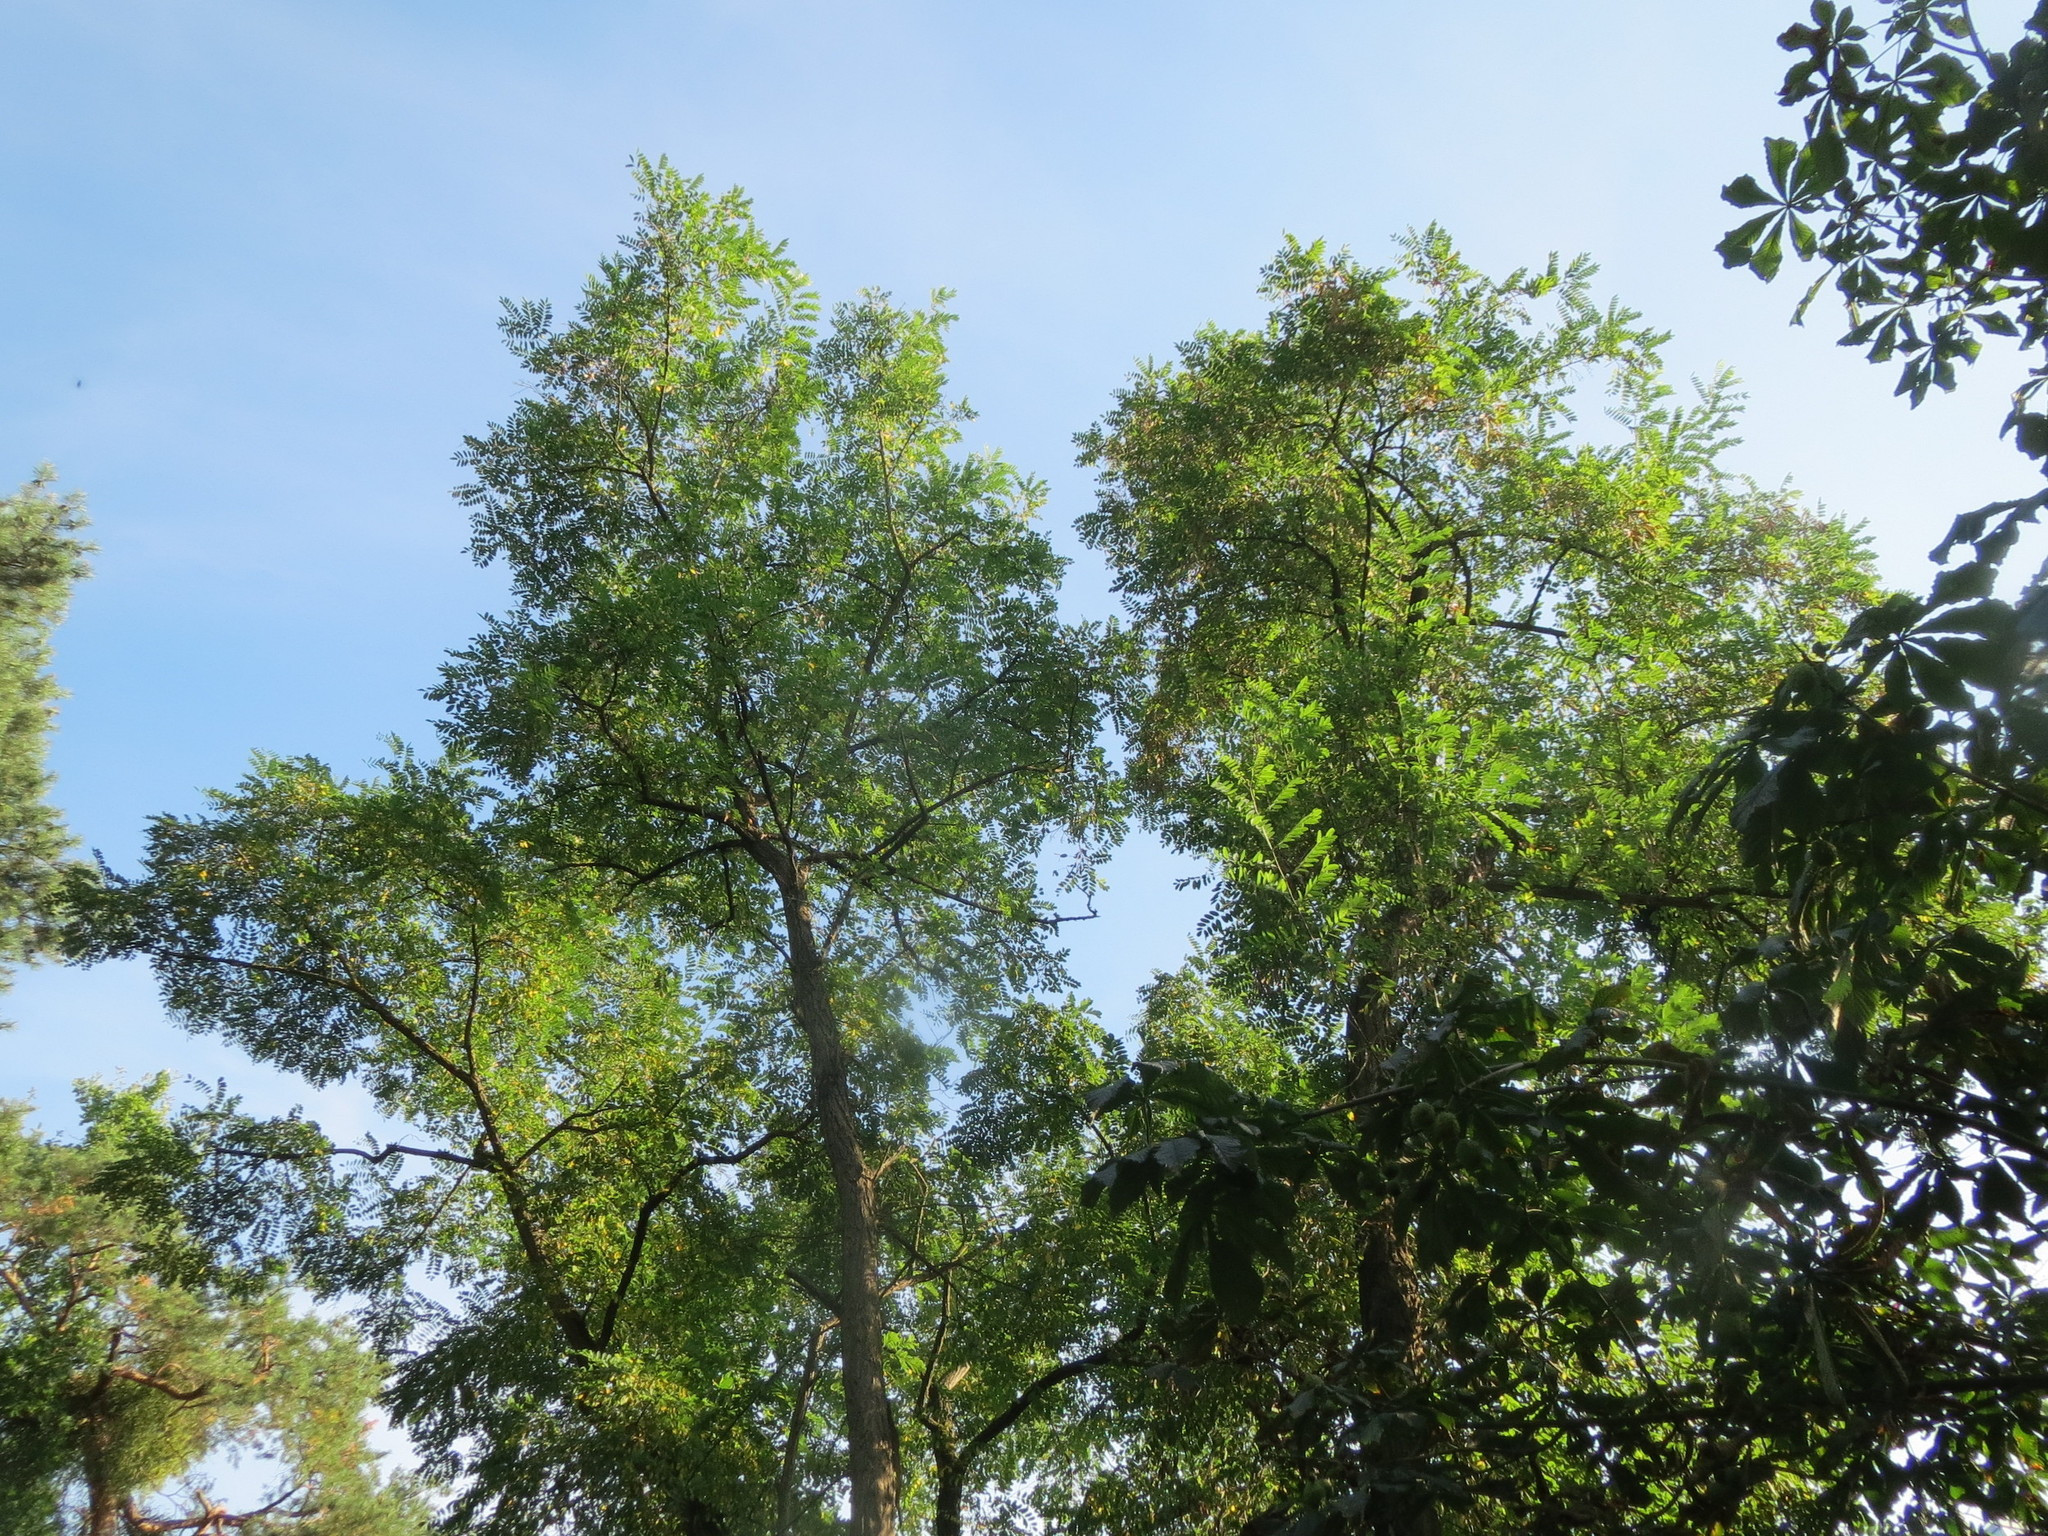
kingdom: Plantae
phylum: Tracheophyta
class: Magnoliopsida
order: Fabales
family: Fabaceae
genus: Robinia
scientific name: Robinia pseudoacacia
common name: Black locust
